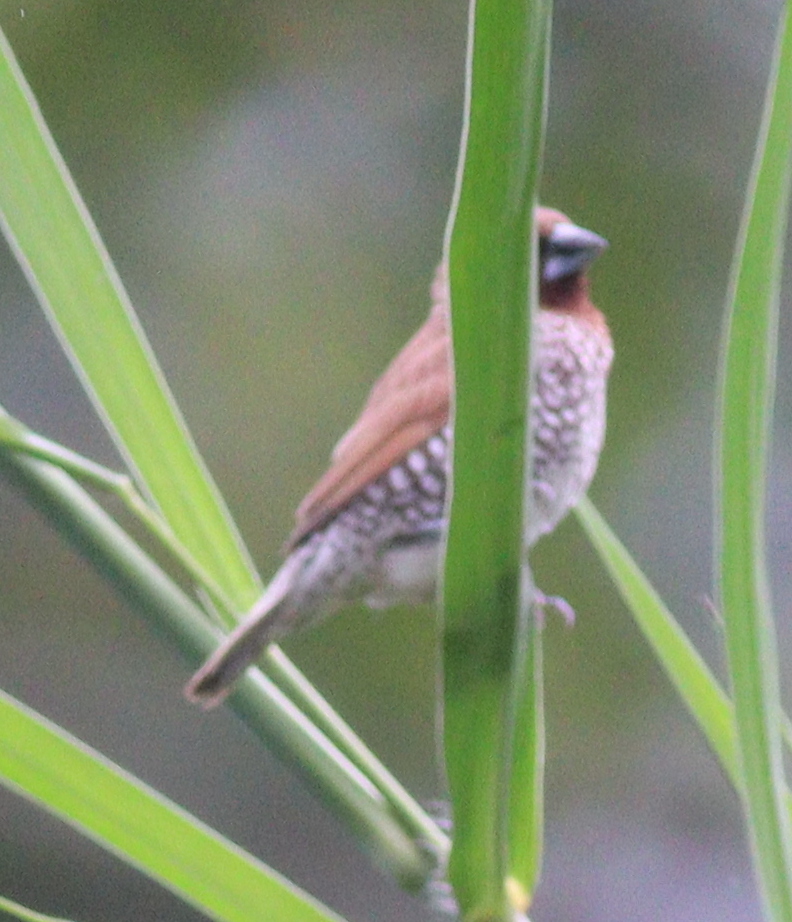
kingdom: Animalia
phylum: Chordata
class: Aves
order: Passeriformes
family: Estrildidae
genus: Lonchura
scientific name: Lonchura punctulata
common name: Scaly-breasted munia
